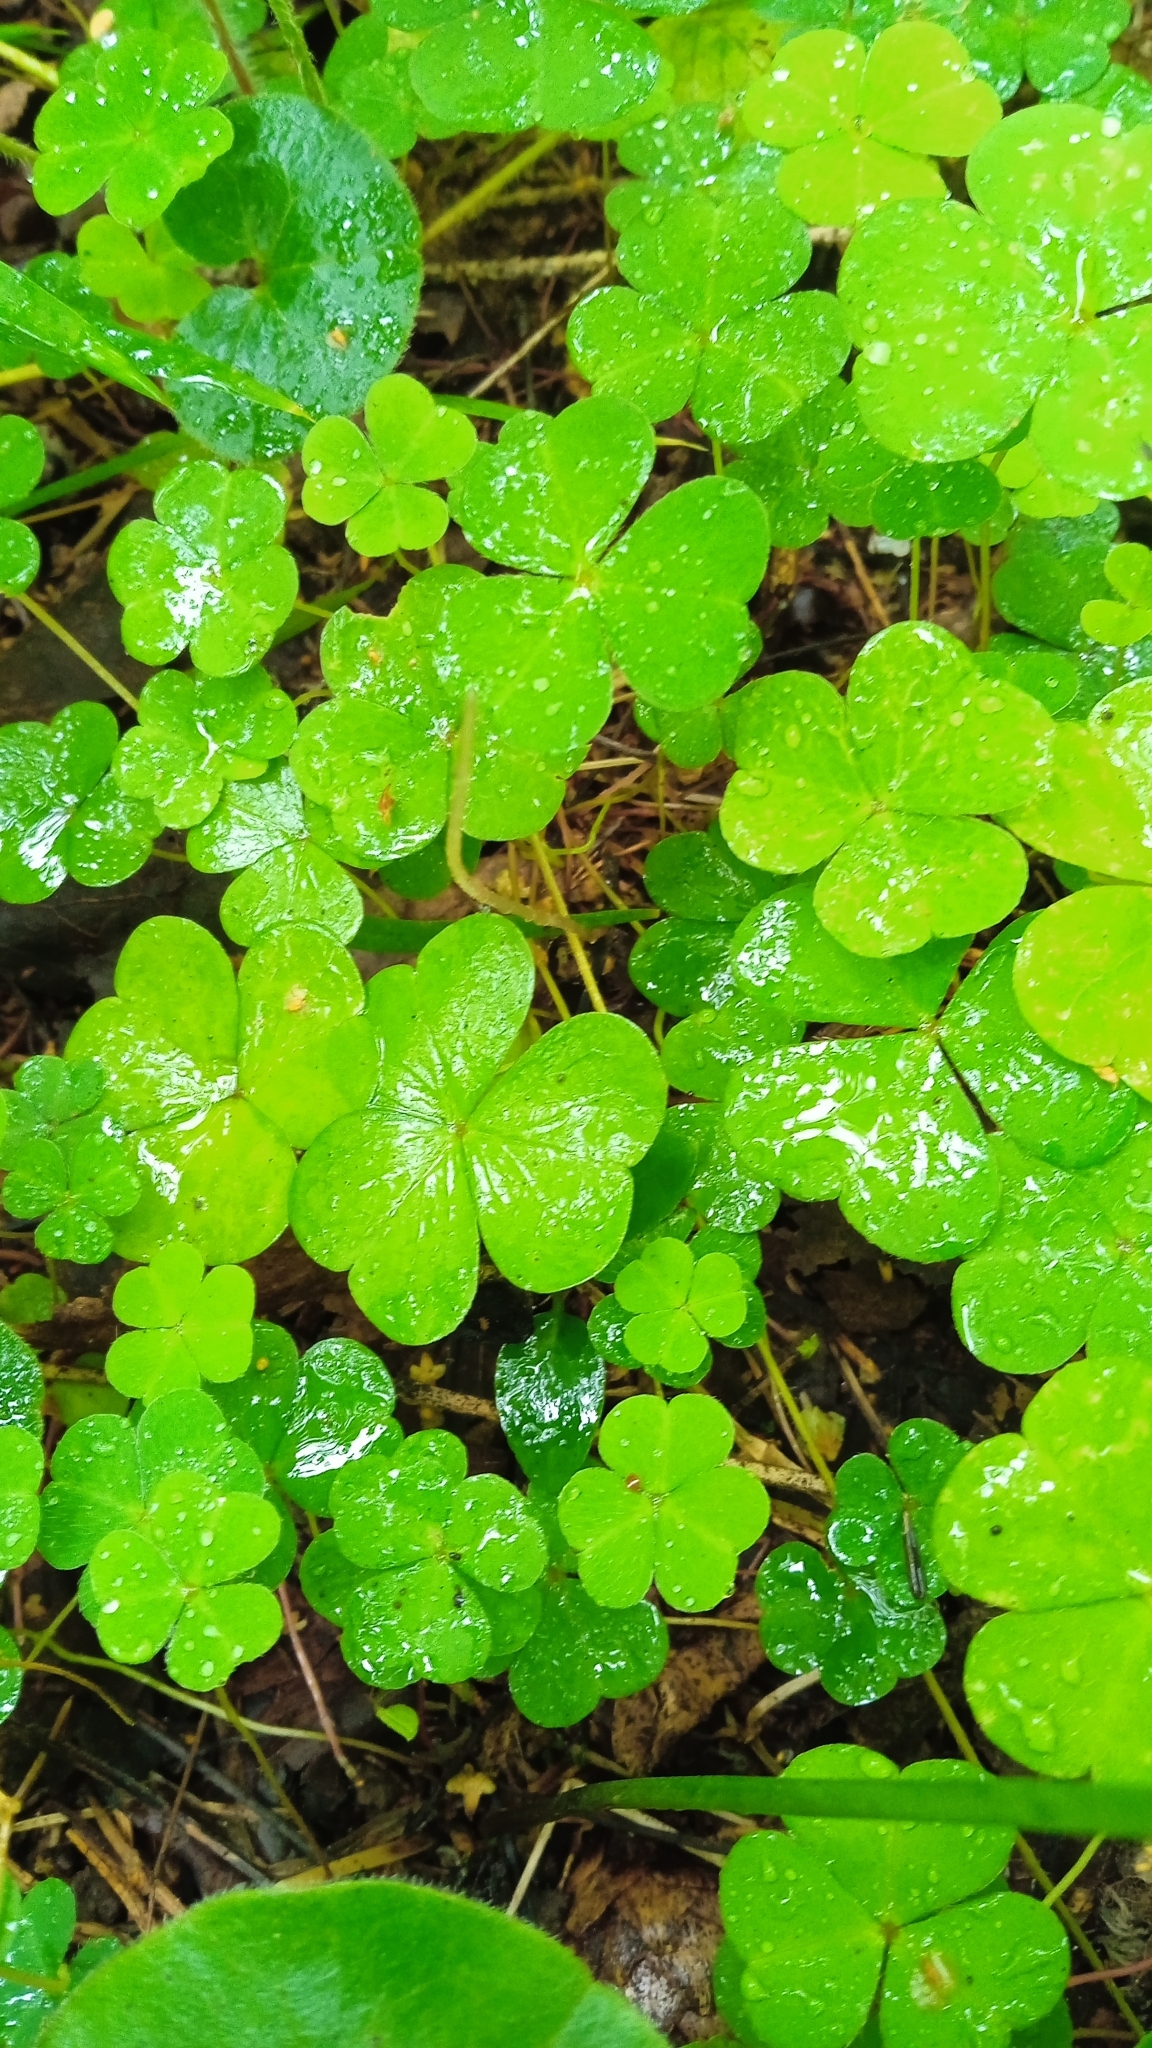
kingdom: Plantae
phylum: Tracheophyta
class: Magnoliopsida
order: Oxalidales
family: Oxalidaceae
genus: Oxalis
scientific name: Oxalis acetosella
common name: Wood-sorrel
